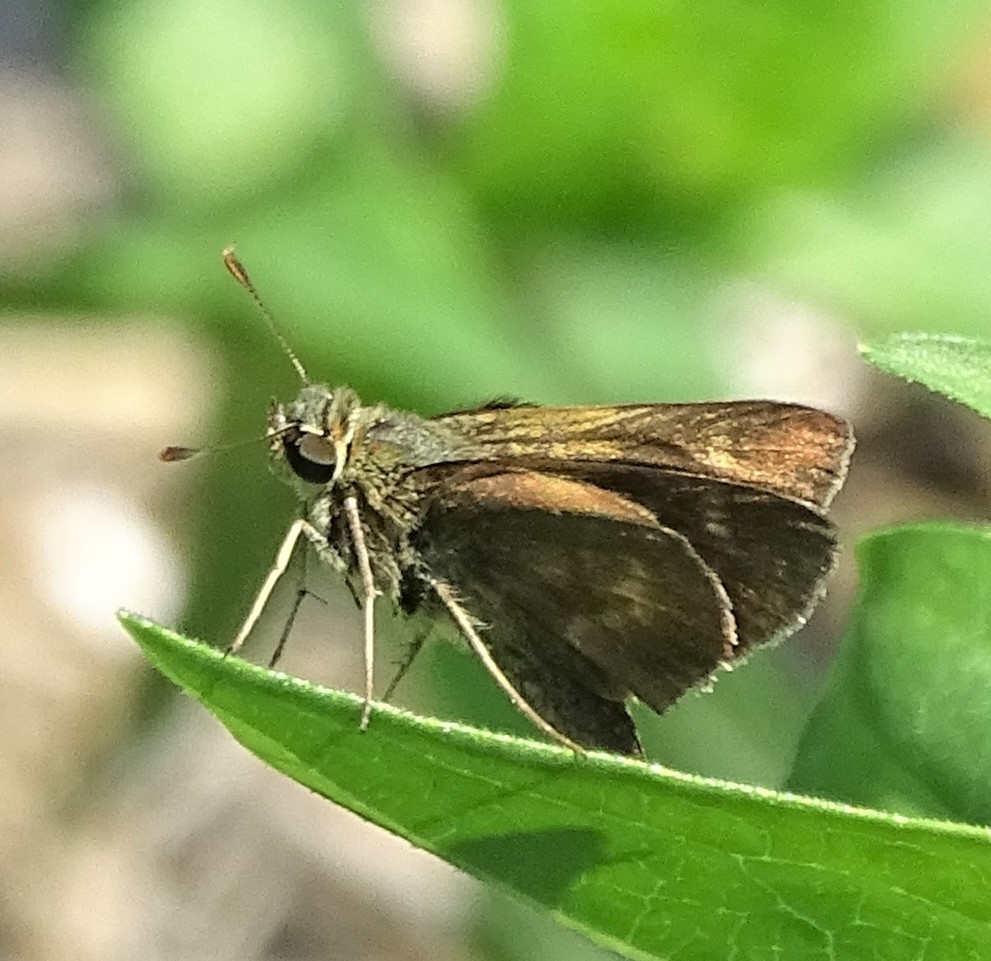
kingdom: Animalia
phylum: Arthropoda
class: Insecta
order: Lepidoptera
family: Hesperiidae
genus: Polites
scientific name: Polites egeremet
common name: Northern broken-dash
